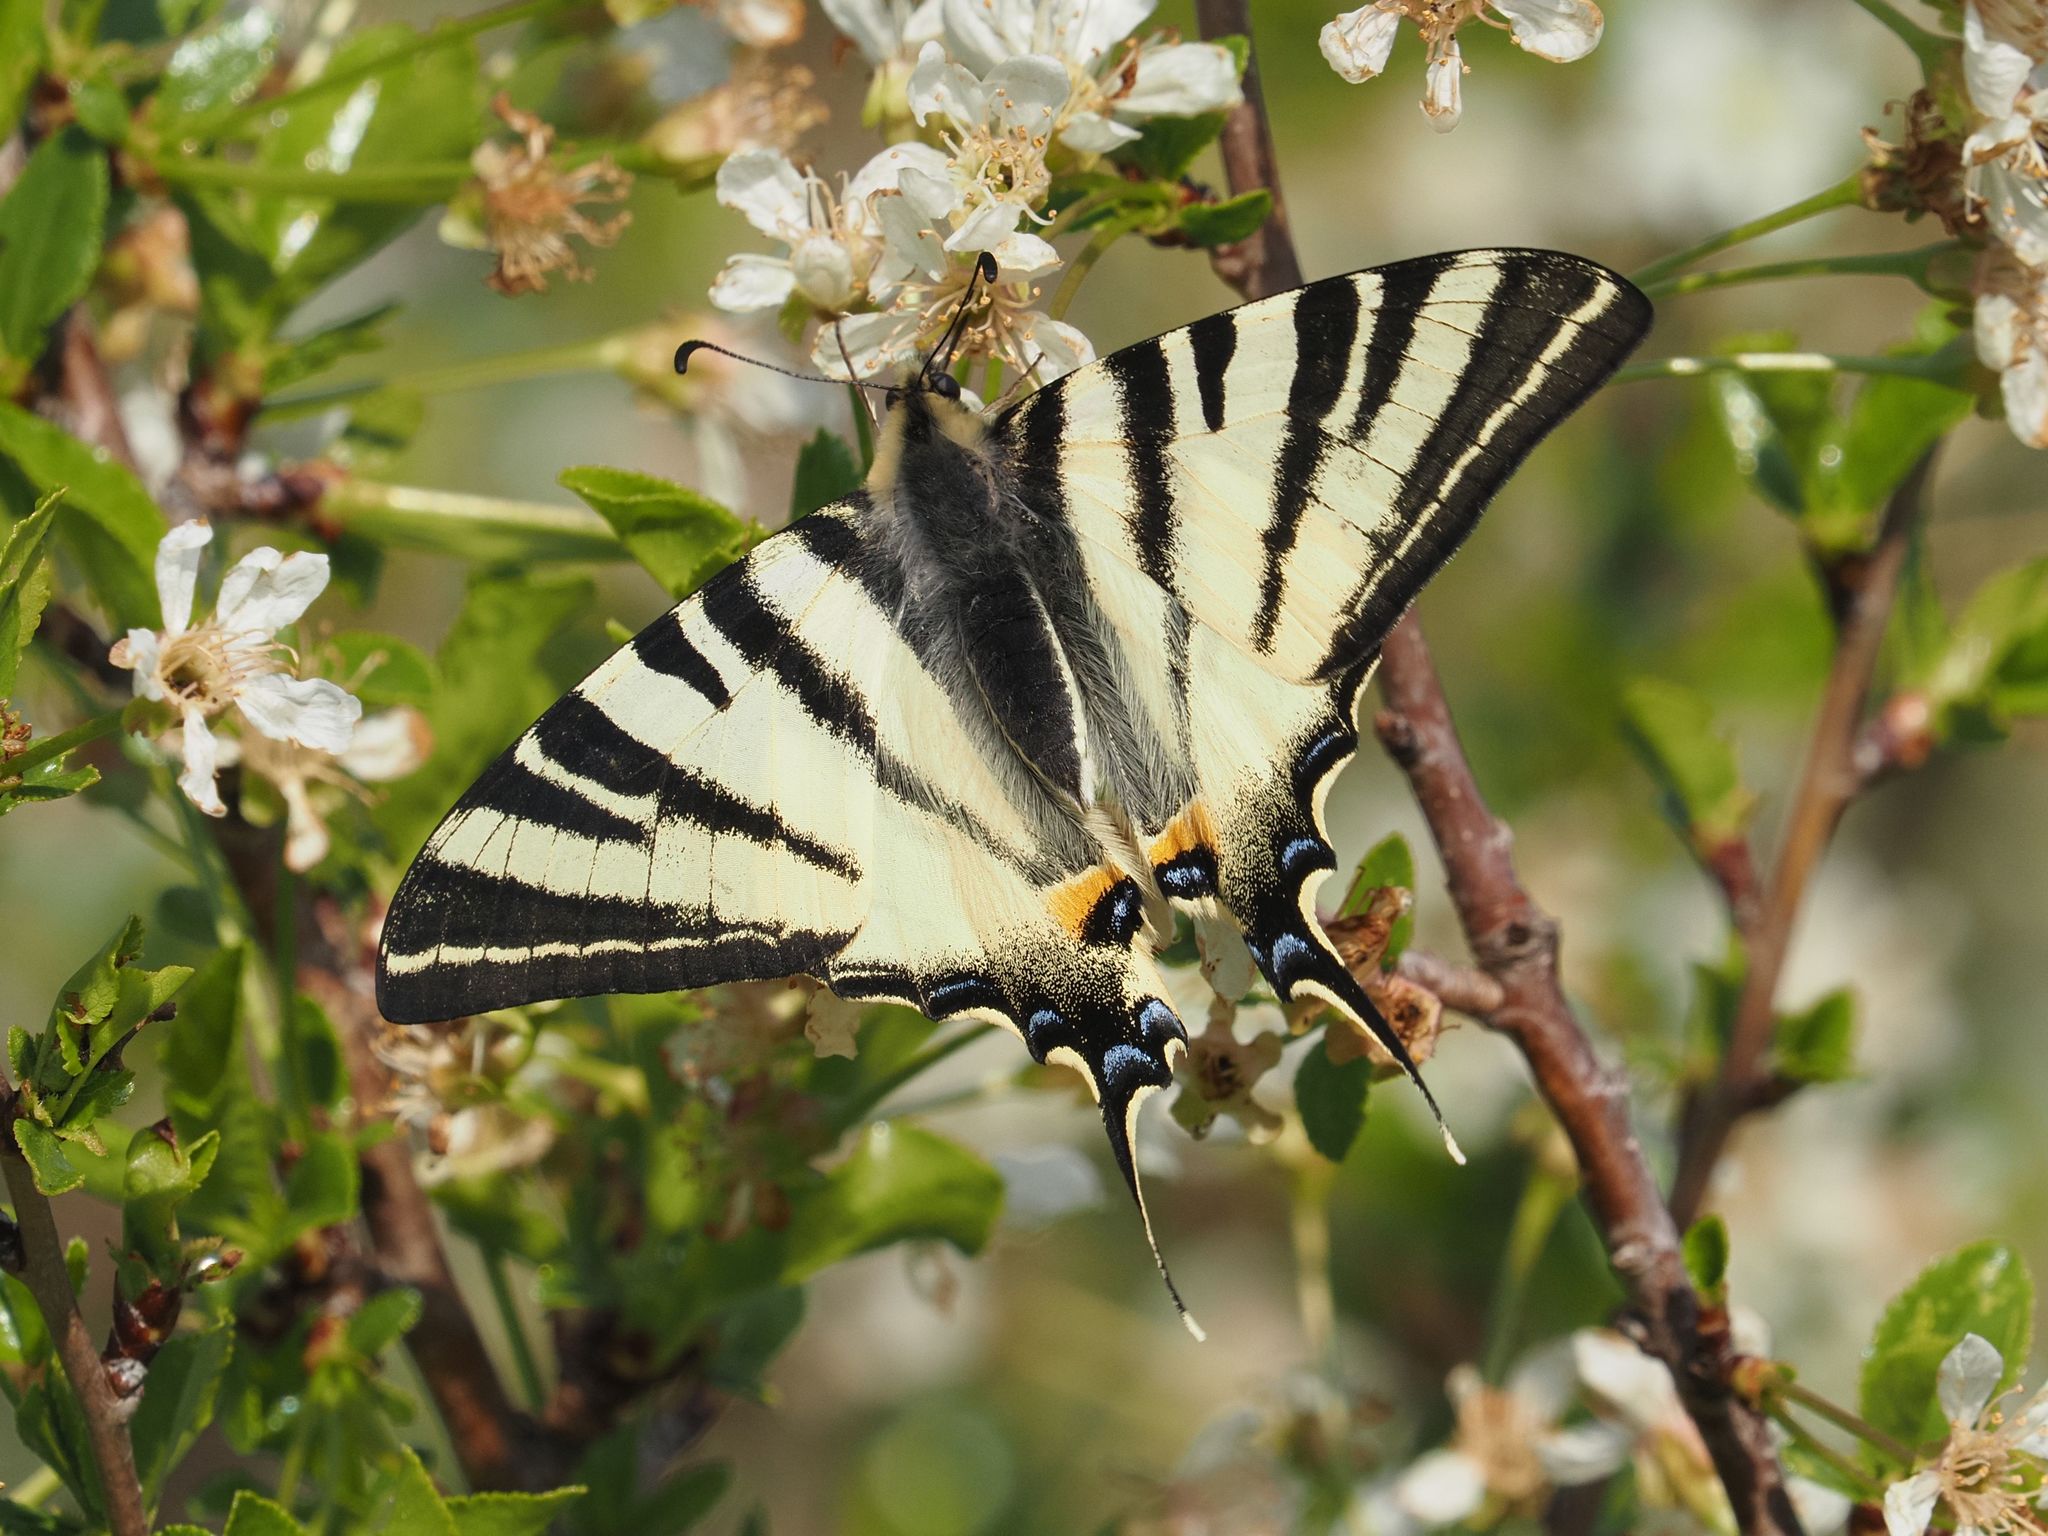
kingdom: Animalia
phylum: Arthropoda
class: Insecta
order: Lepidoptera
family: Papilionidae
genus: Iphiclides
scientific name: Iphiclides podalirius
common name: Scarce swallowtail
